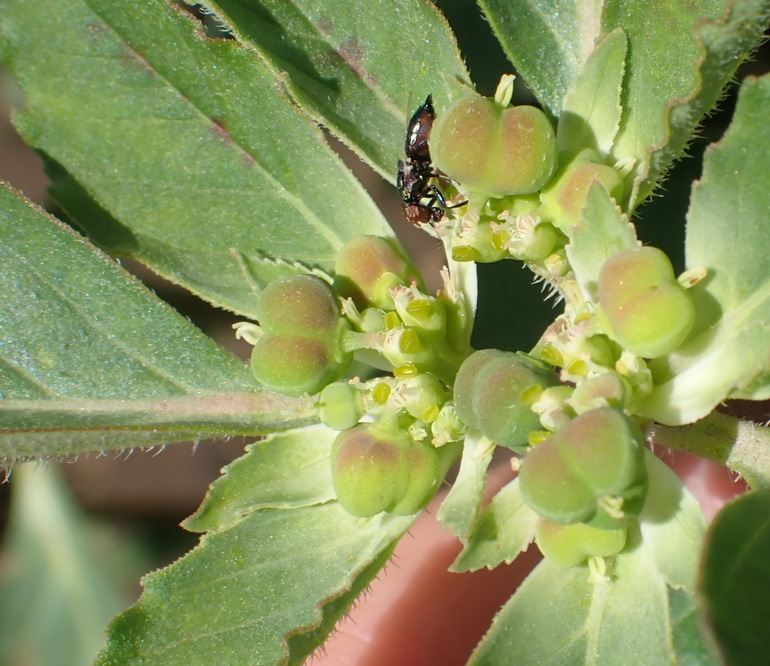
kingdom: Plantae
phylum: Tracheophyta
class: Magnoliopsida
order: Malpighiales
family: Euphorbiaceae
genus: Euphorbia
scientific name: Euphorbia dentata
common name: Dentate spurge
